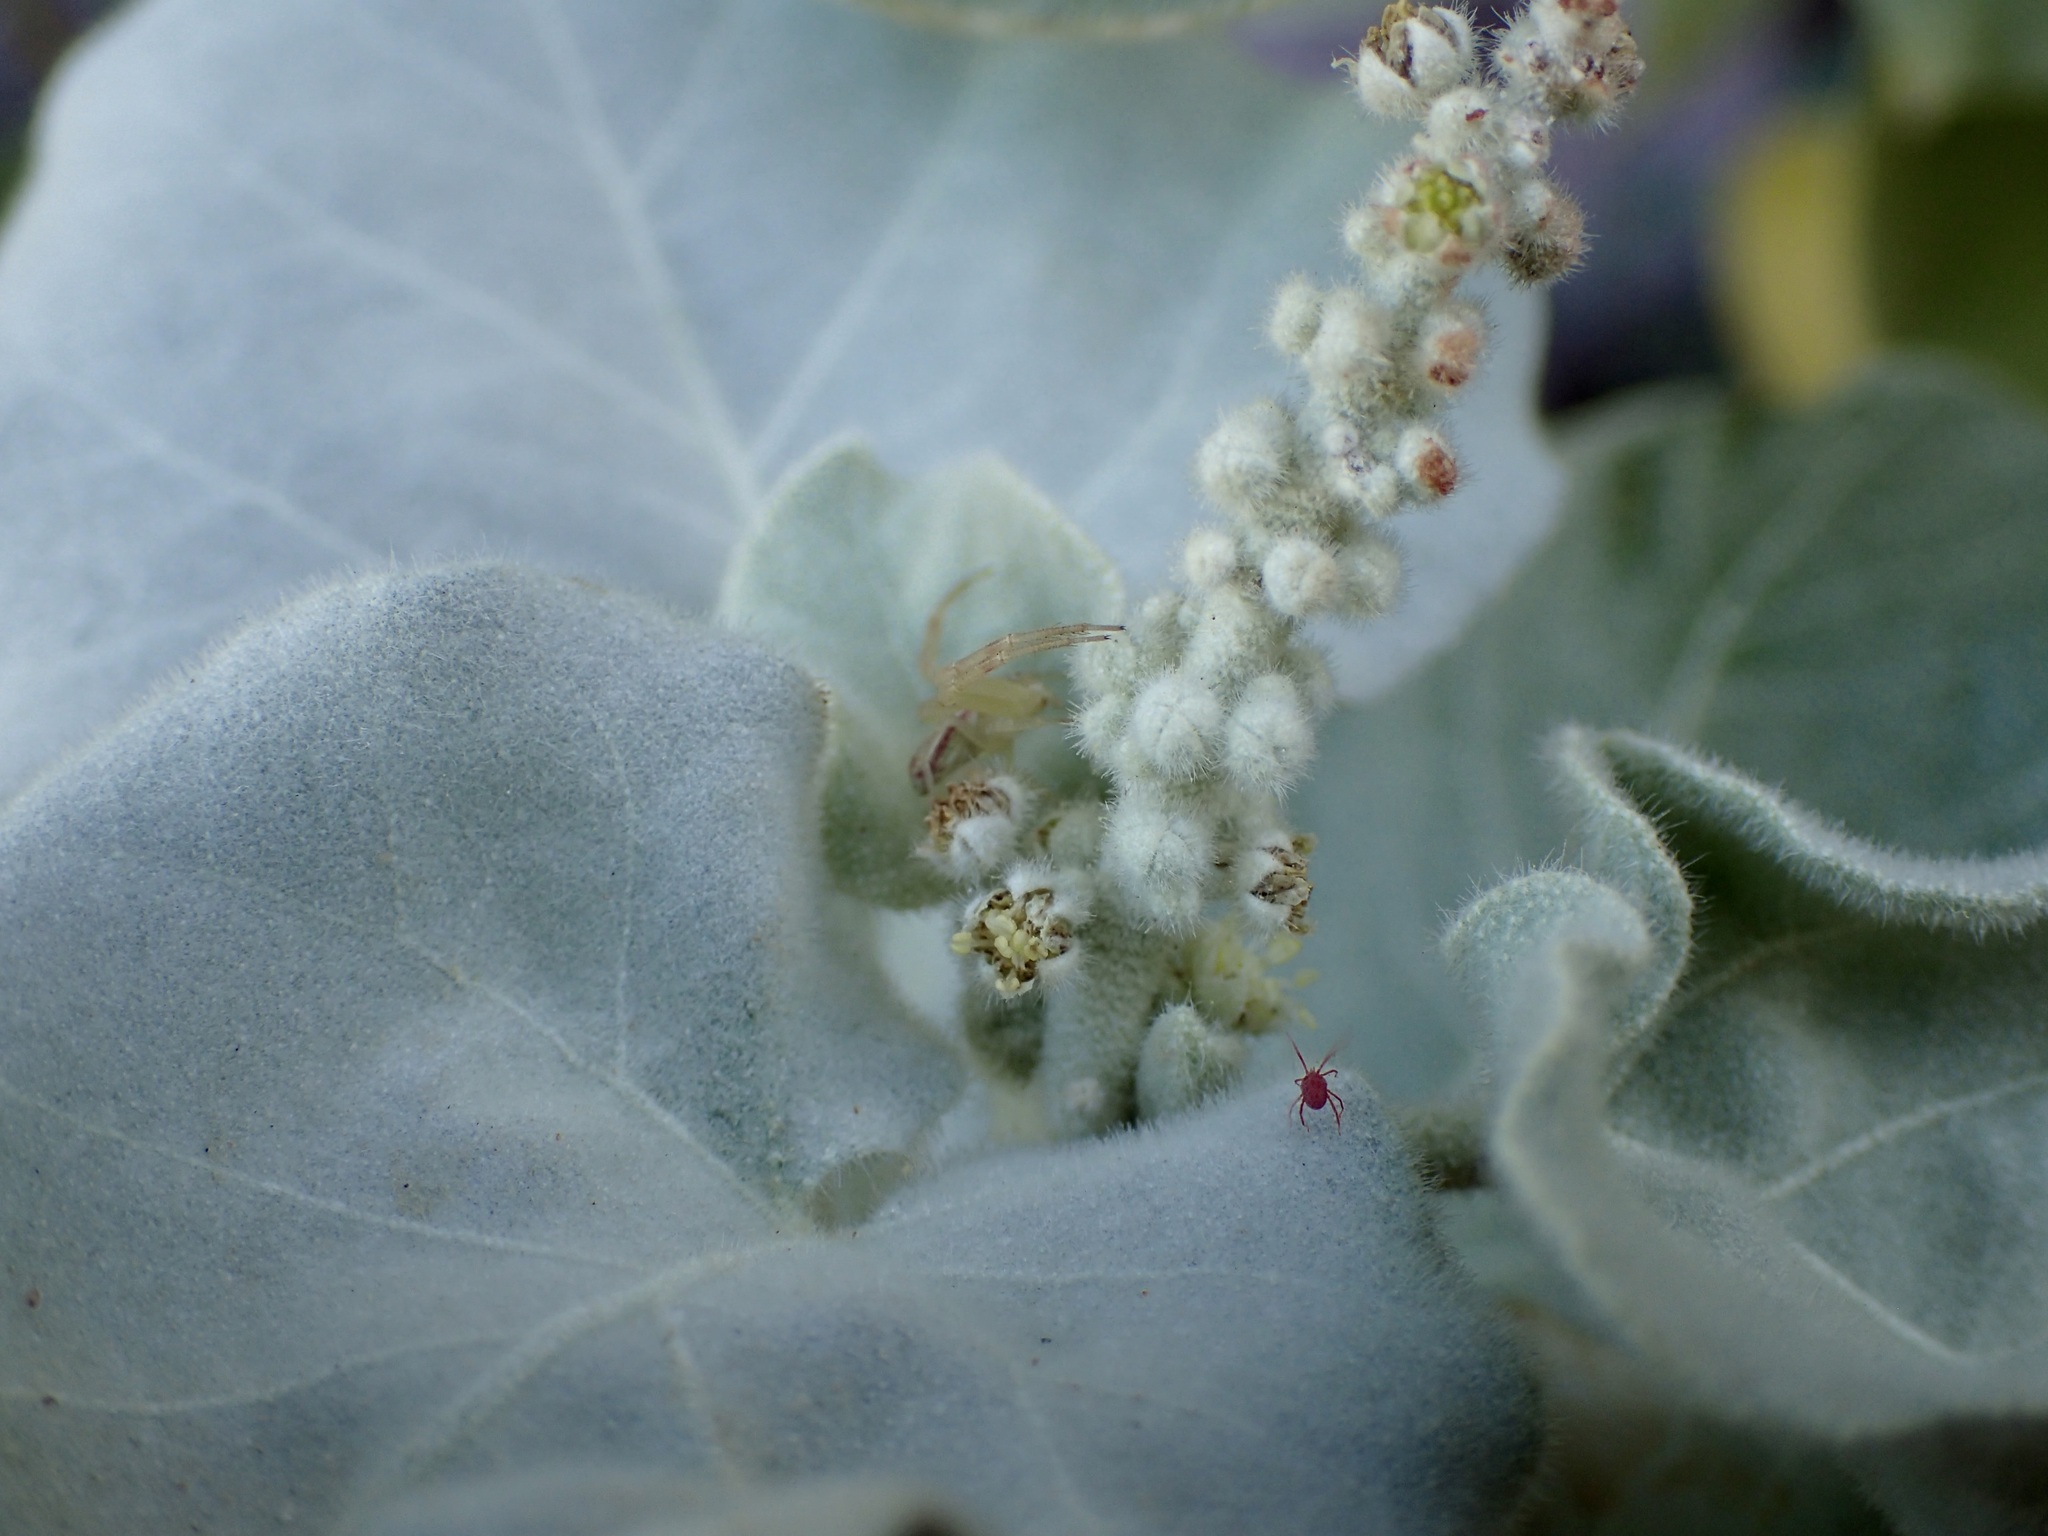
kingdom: Plantae
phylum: Tracheophyta
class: Magnoliopsida
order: Malpighiales
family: Euphorbiaceae
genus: Croton
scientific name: Croton magdalenae
